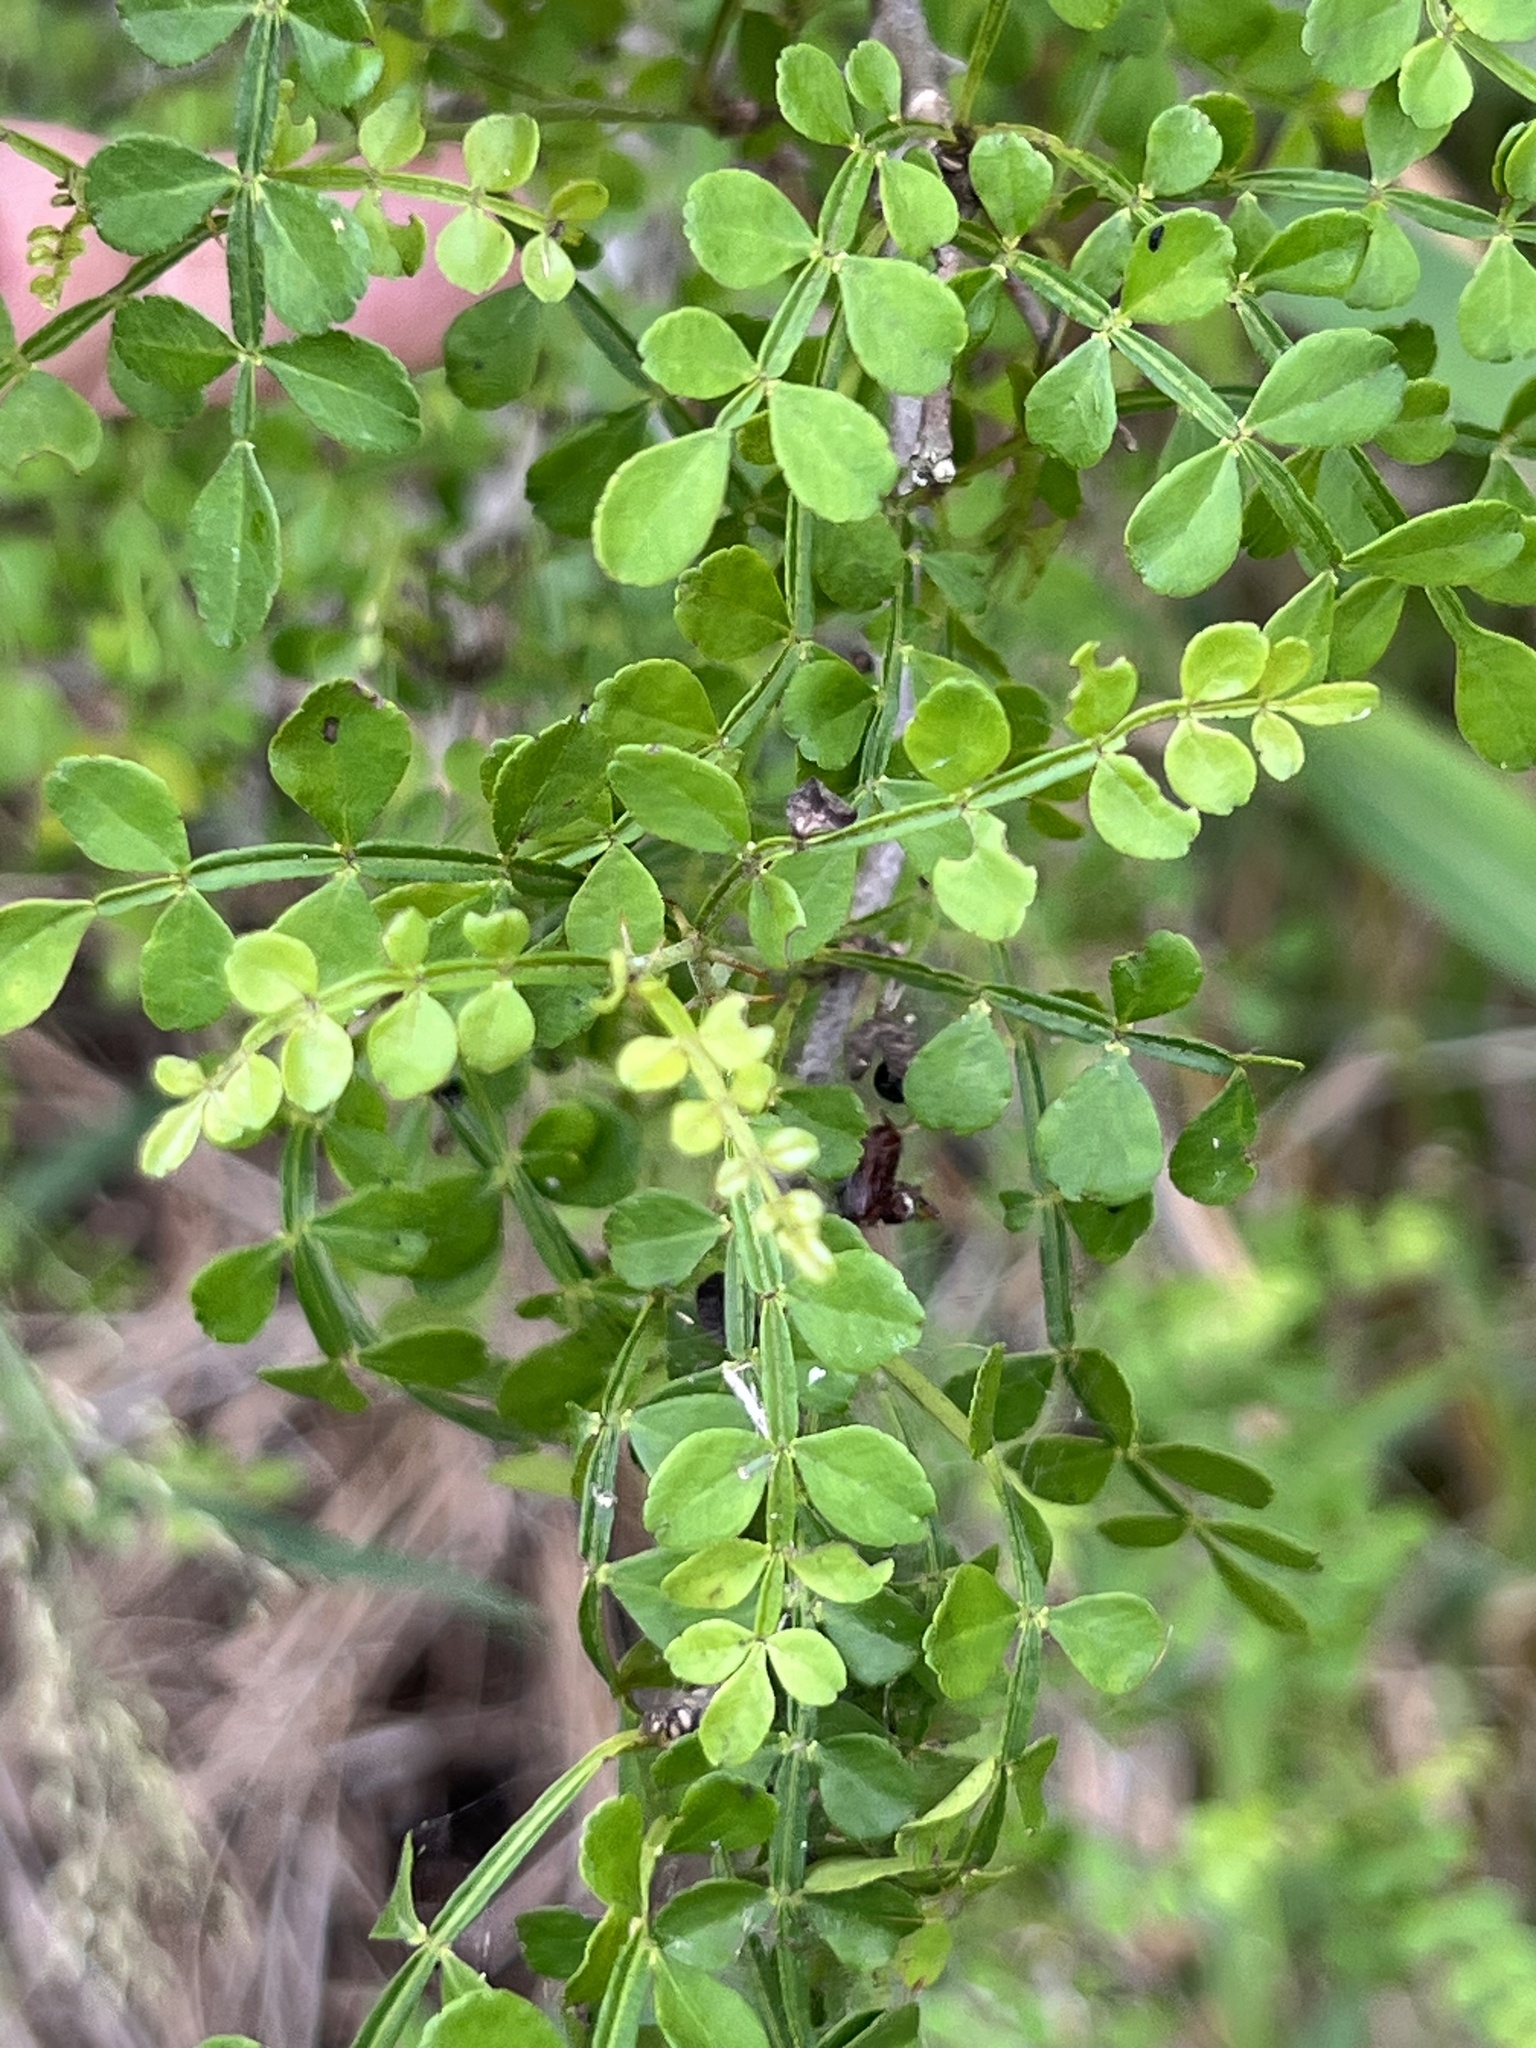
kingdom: Plantae
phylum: Tracheophyta
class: Magnoliopsida
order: Sapindales
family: Rutaceae
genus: Zanthoxylum
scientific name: Zanthoxylum fagara
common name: Lime prickly-ash
